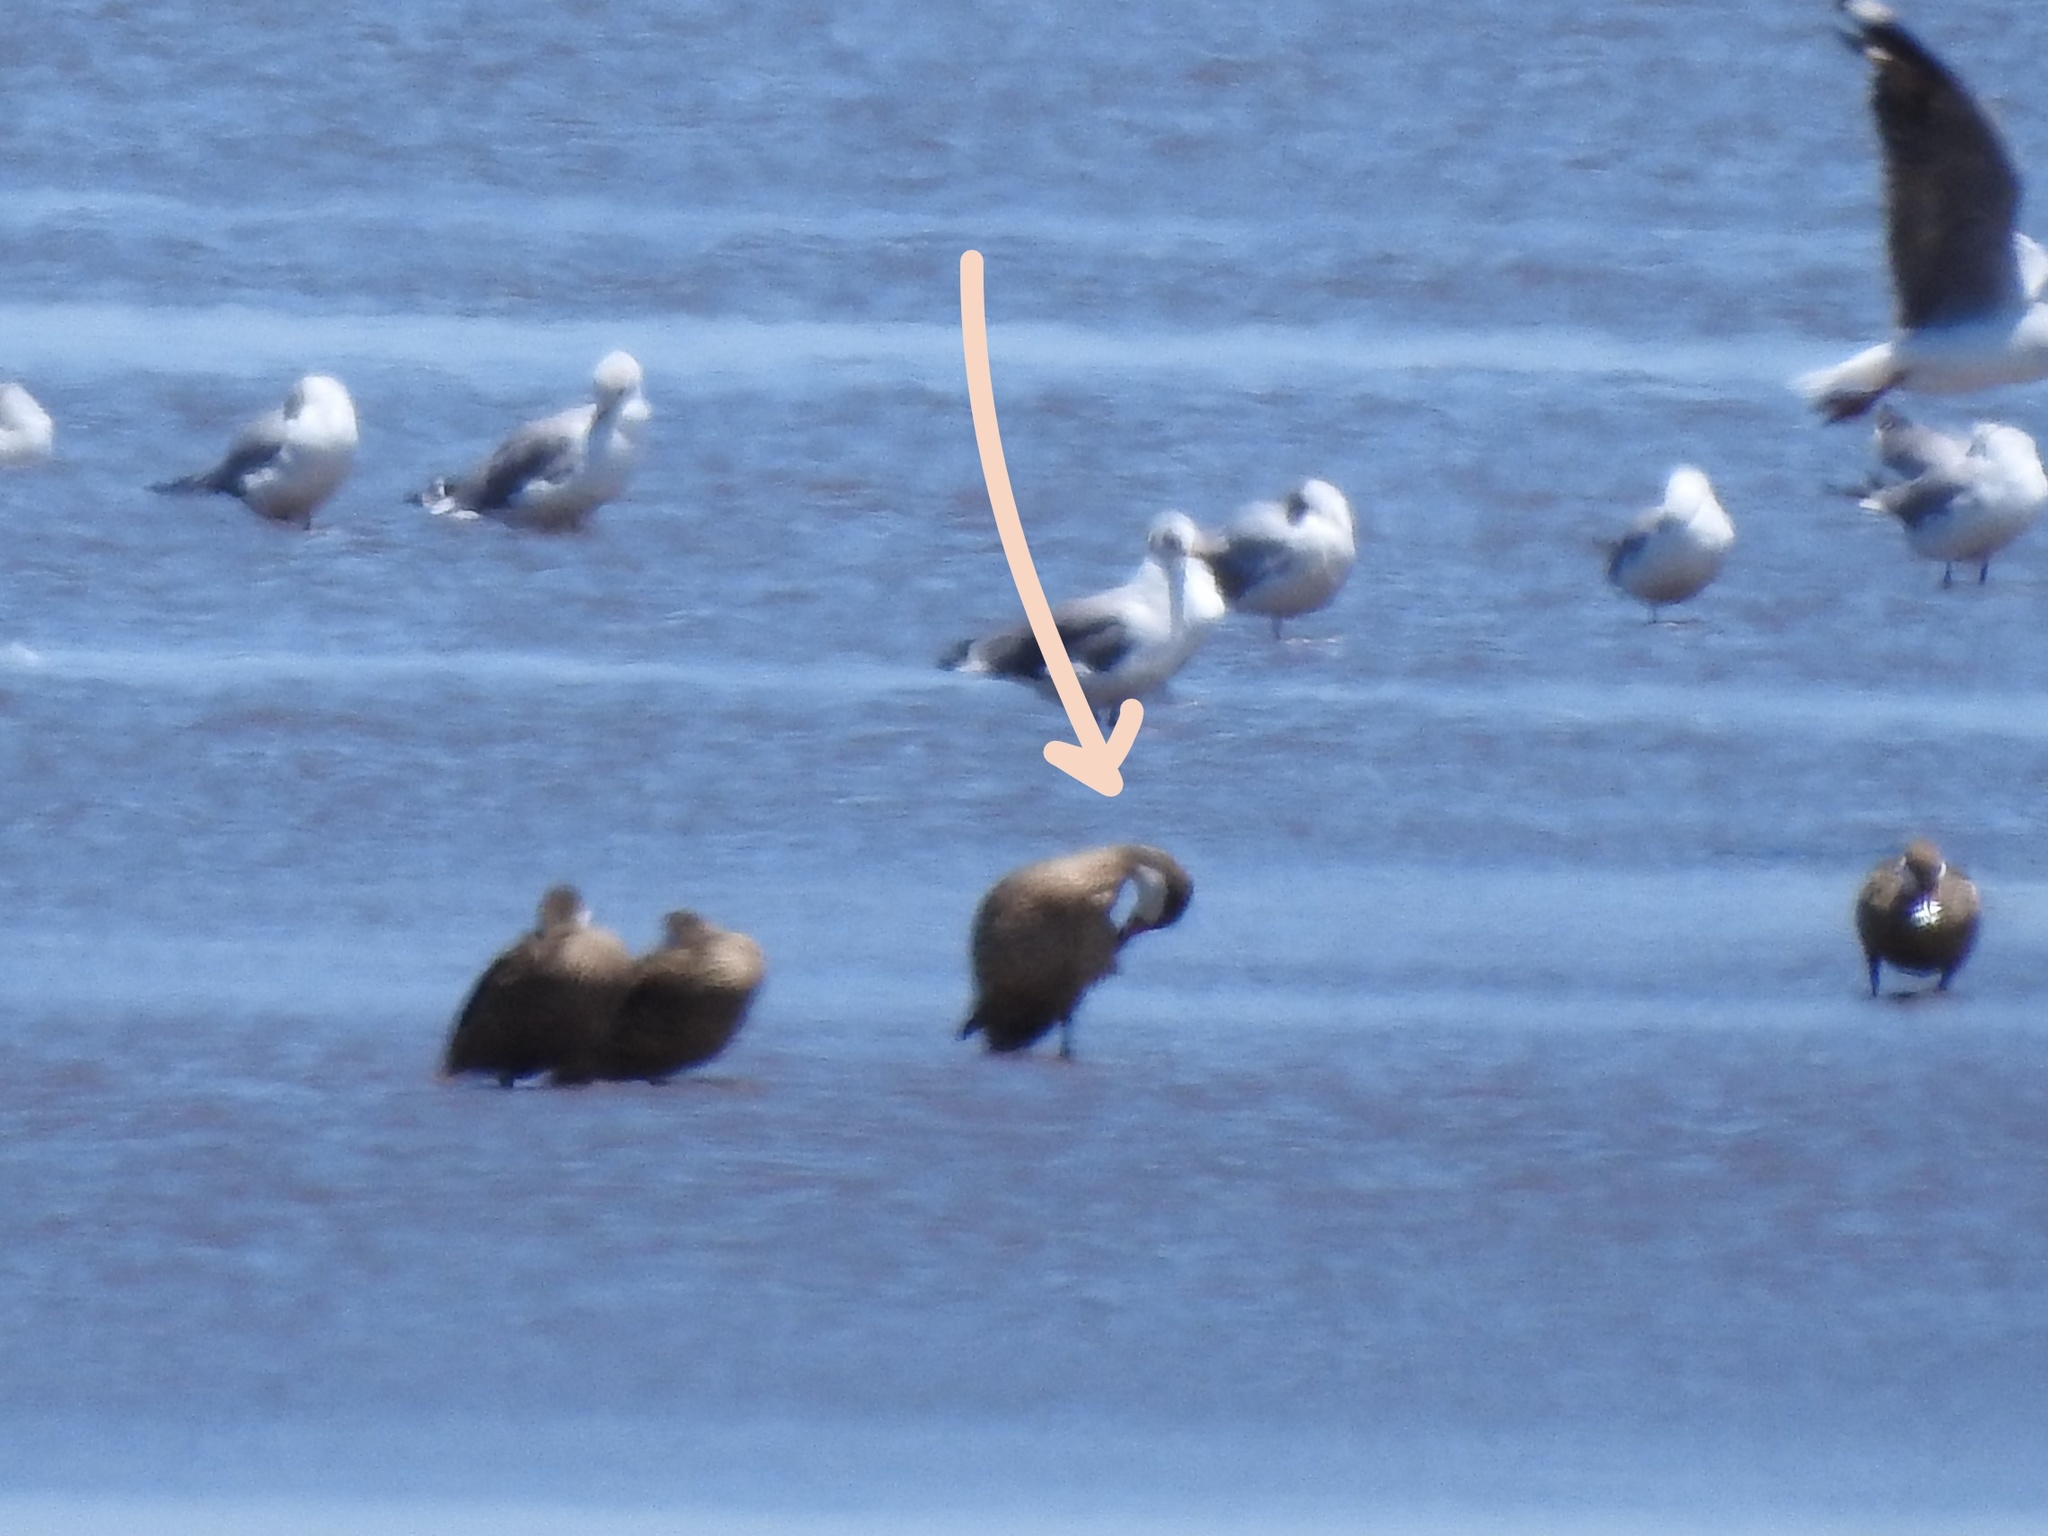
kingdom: Animalia
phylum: Chordata
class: Aves
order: Anseriformes
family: Anatidae
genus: Anas
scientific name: Anas bahamensis
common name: White-cheeked pintail
